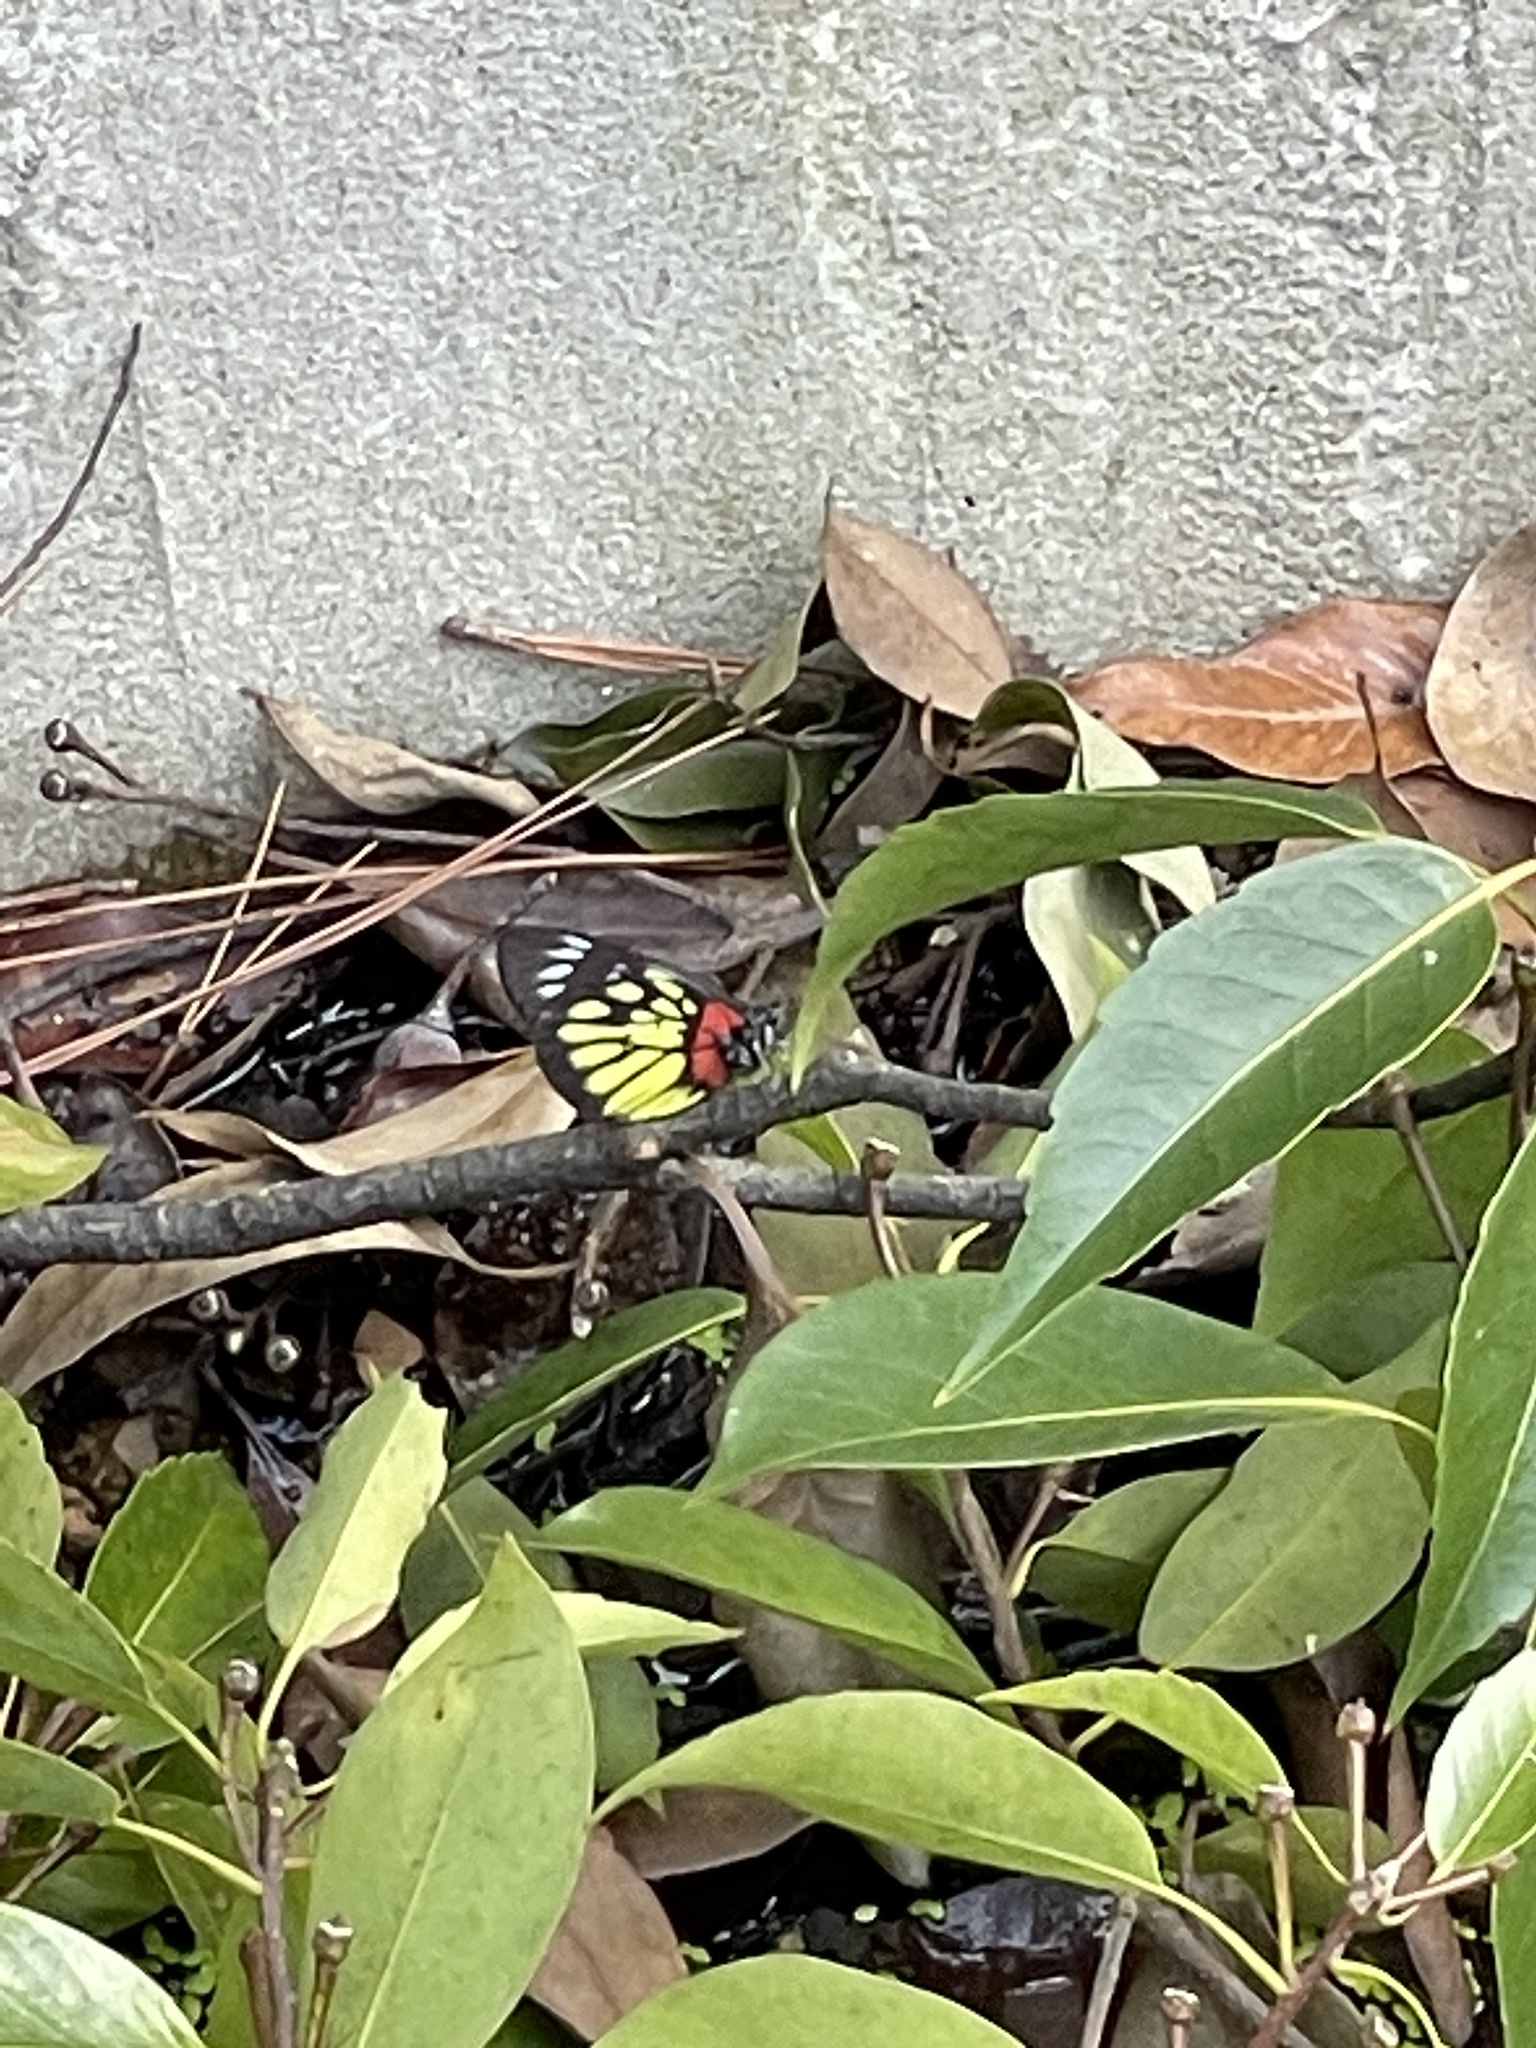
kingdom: Animalia
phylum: Arthropoda
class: Insecta
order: Lepidoptera
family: Pieridae
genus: Delias
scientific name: Delias pasithoe
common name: Red-base jezebel
